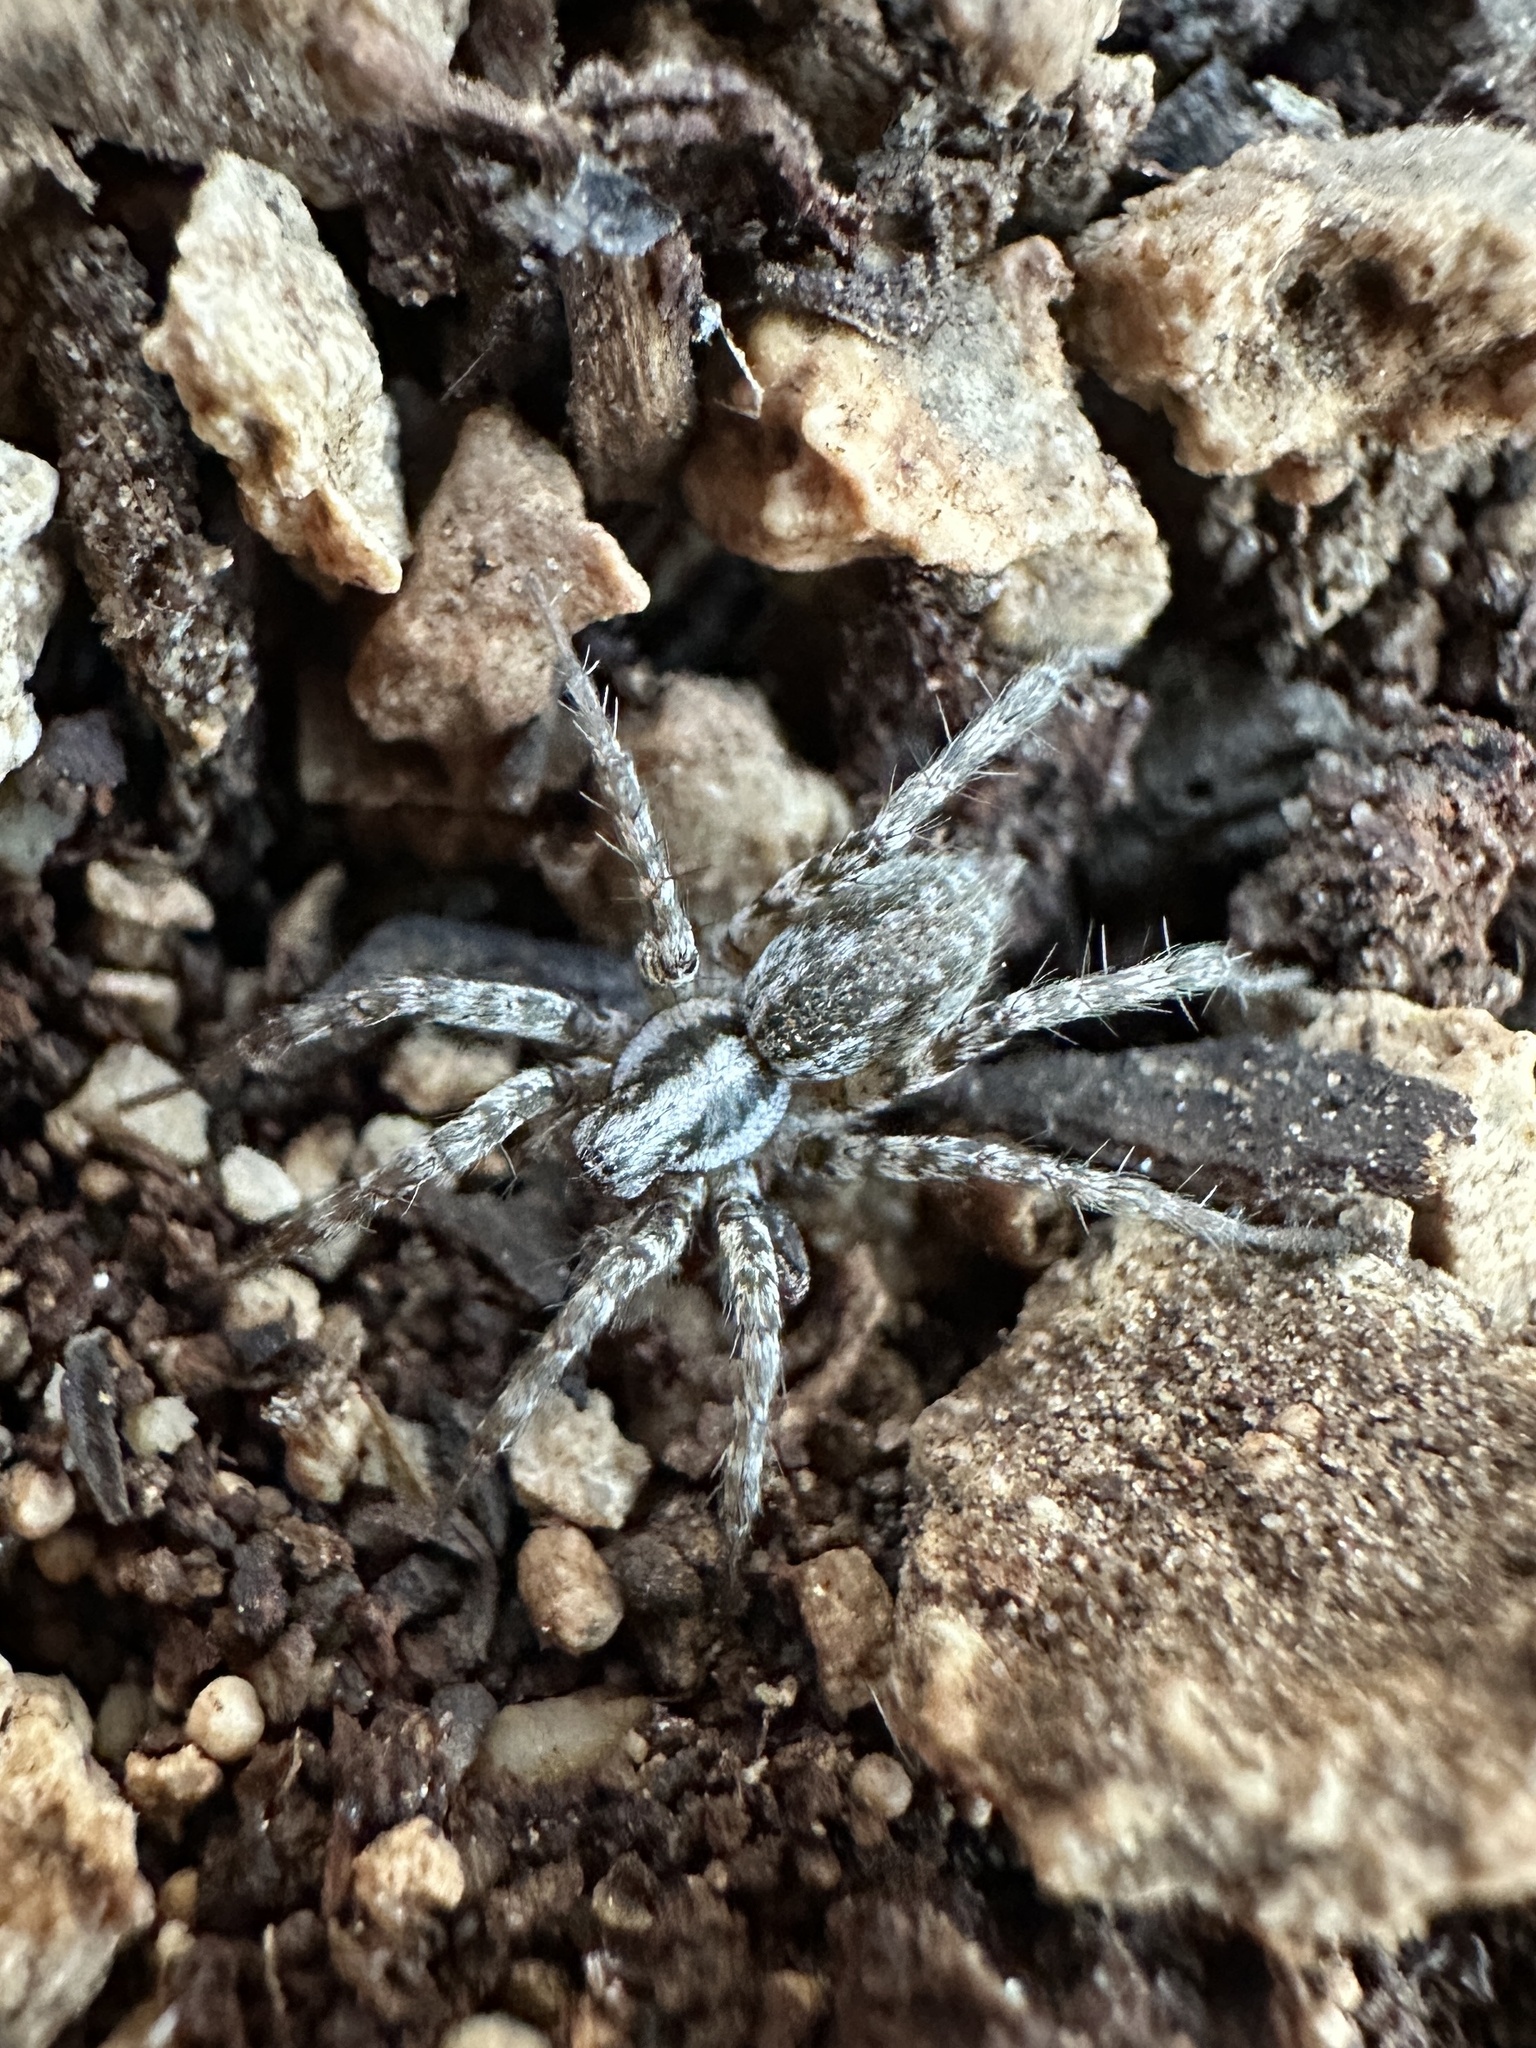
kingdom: Animalia
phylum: Arthropoda
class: Arachnida
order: Araneae
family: Agelenidae
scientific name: Agelenidae
